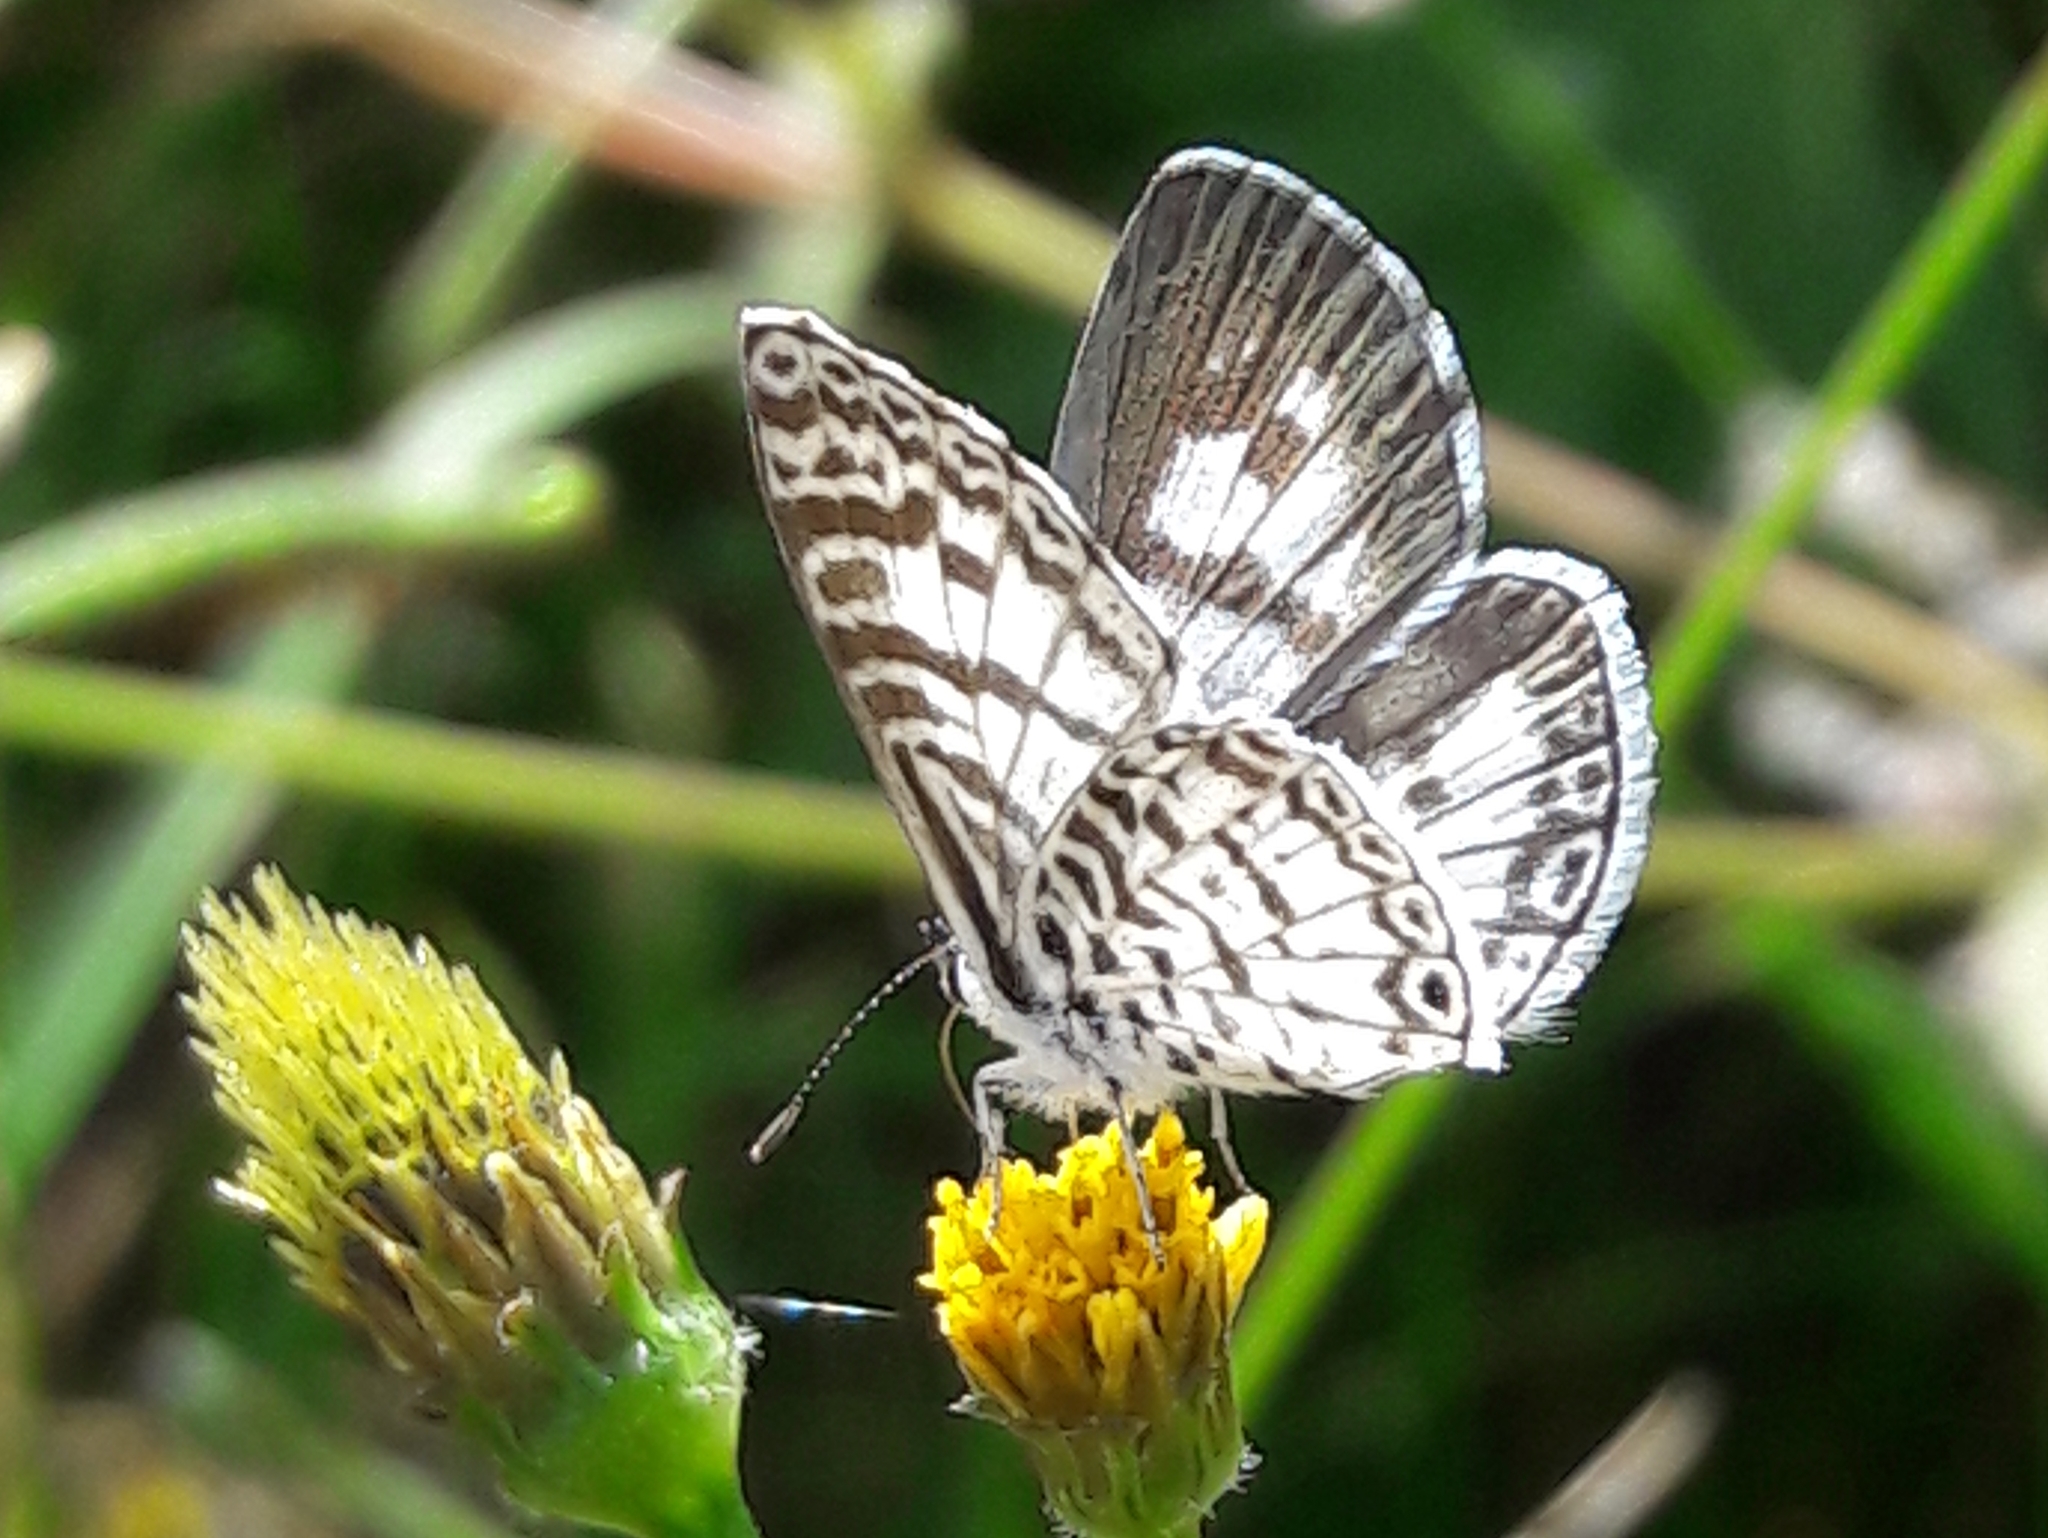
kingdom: Animalia
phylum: Arthropoda
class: Insecta
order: Lepidoptera
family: Lycaenidae
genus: Leptotes
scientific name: Leptotes cassius
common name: Cassius blue
